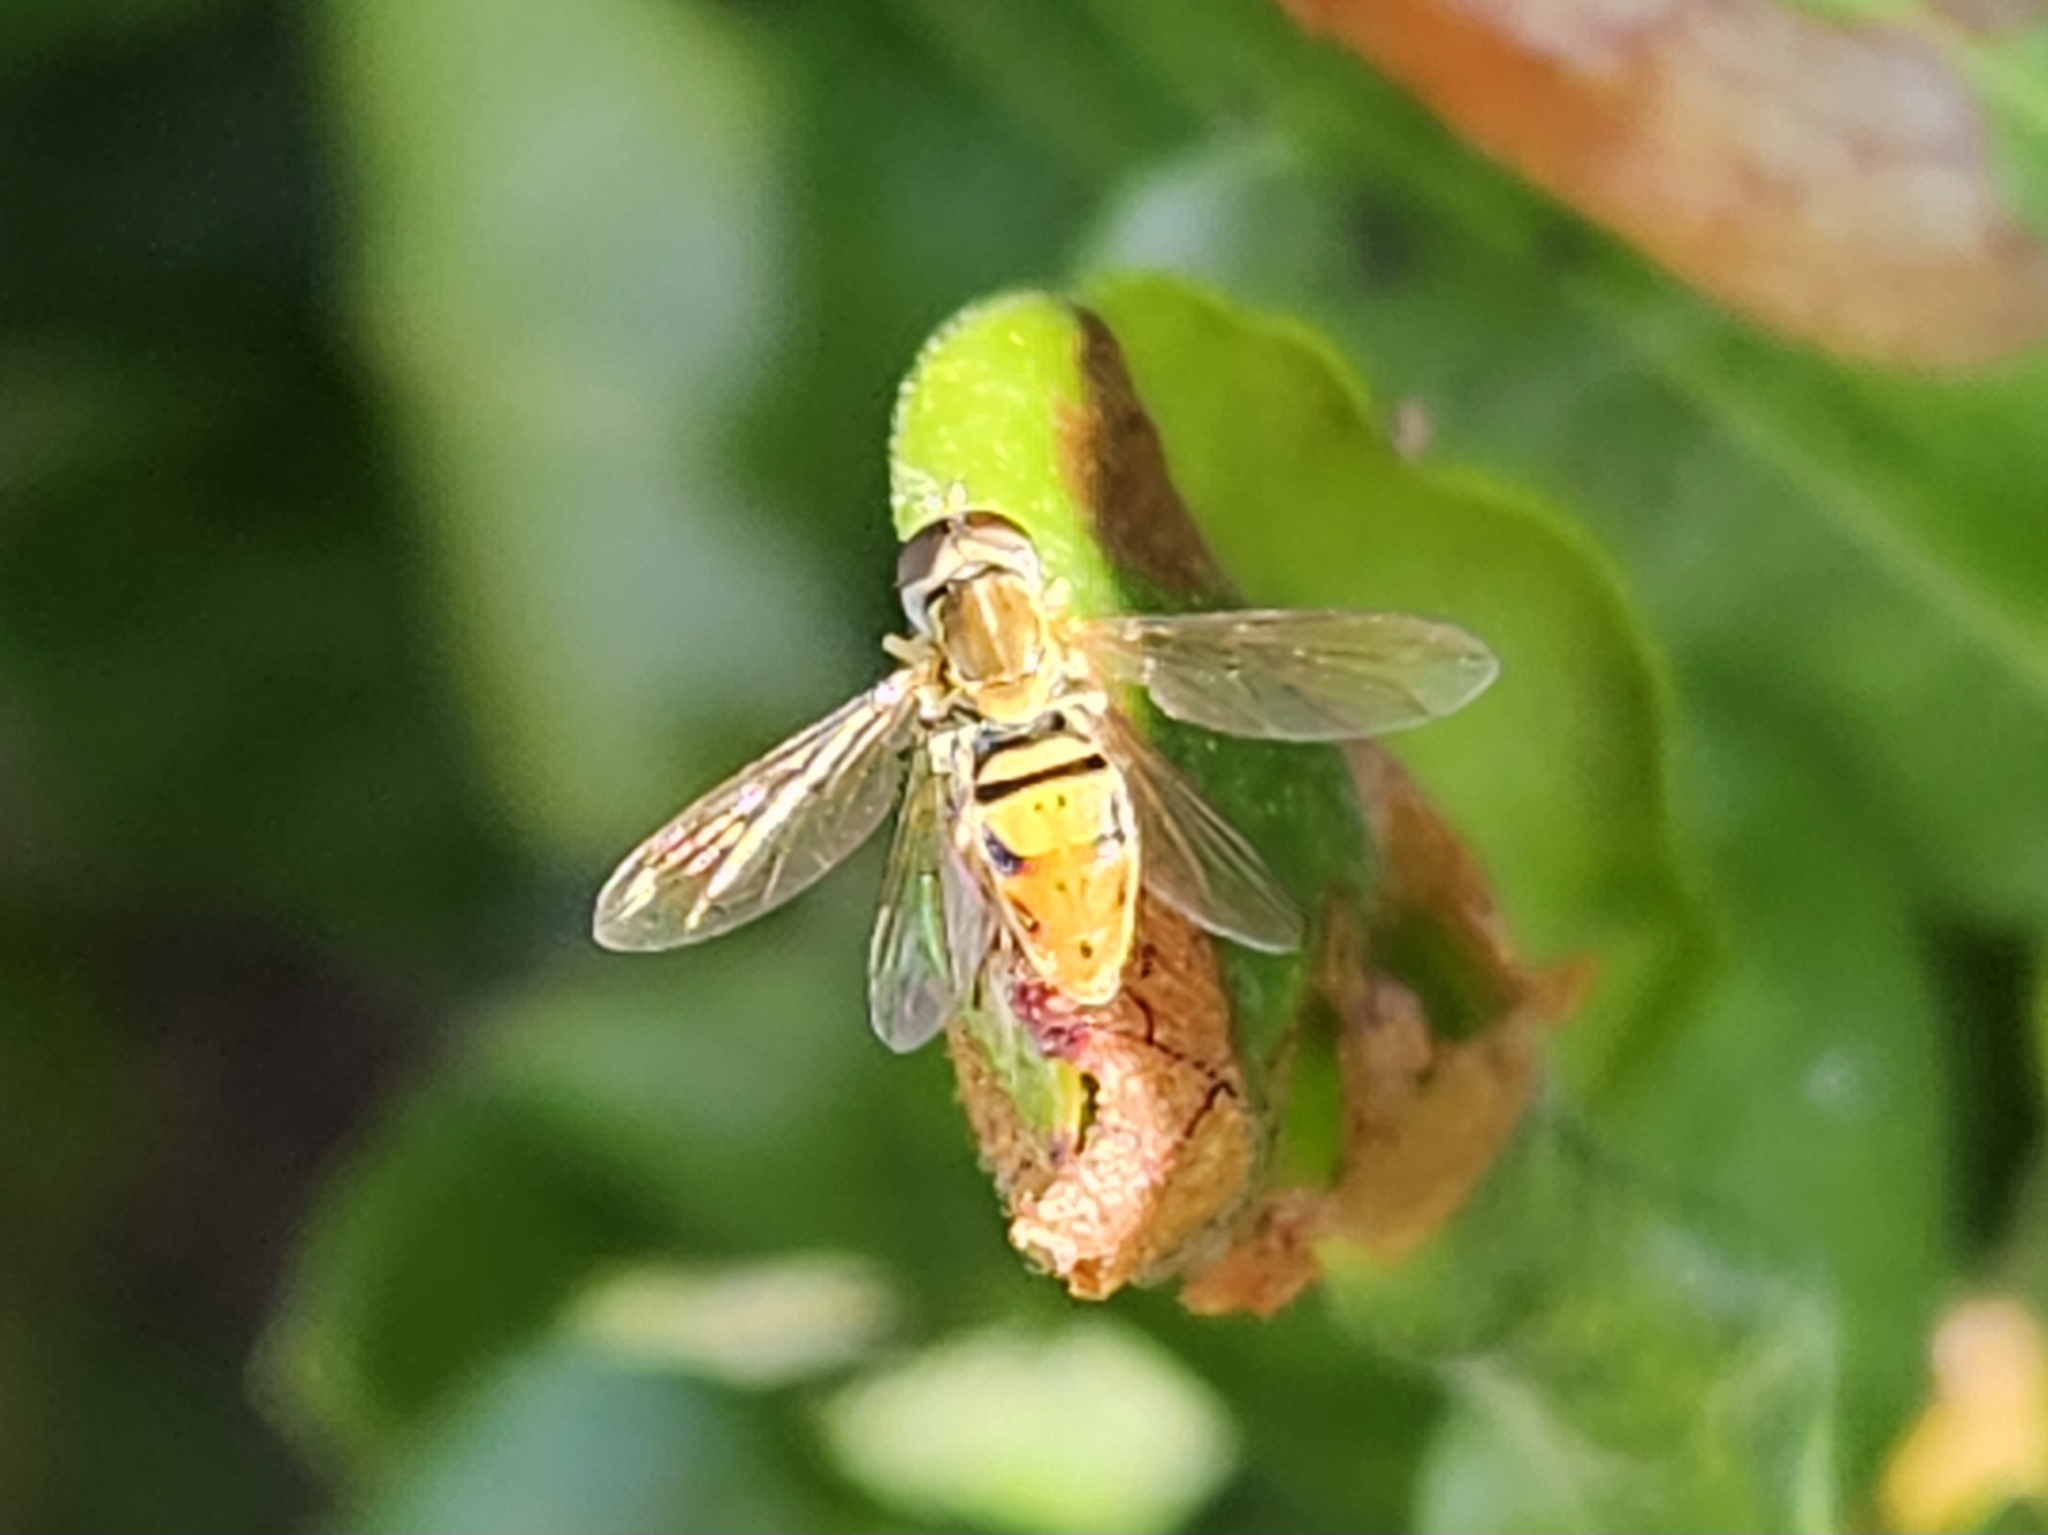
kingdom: Animalia
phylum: Arthropoda
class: Insecta
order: Diptera
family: Syrphidae
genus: Toxomerus
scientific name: Toxomerus marginatus
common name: Syrphid fly
